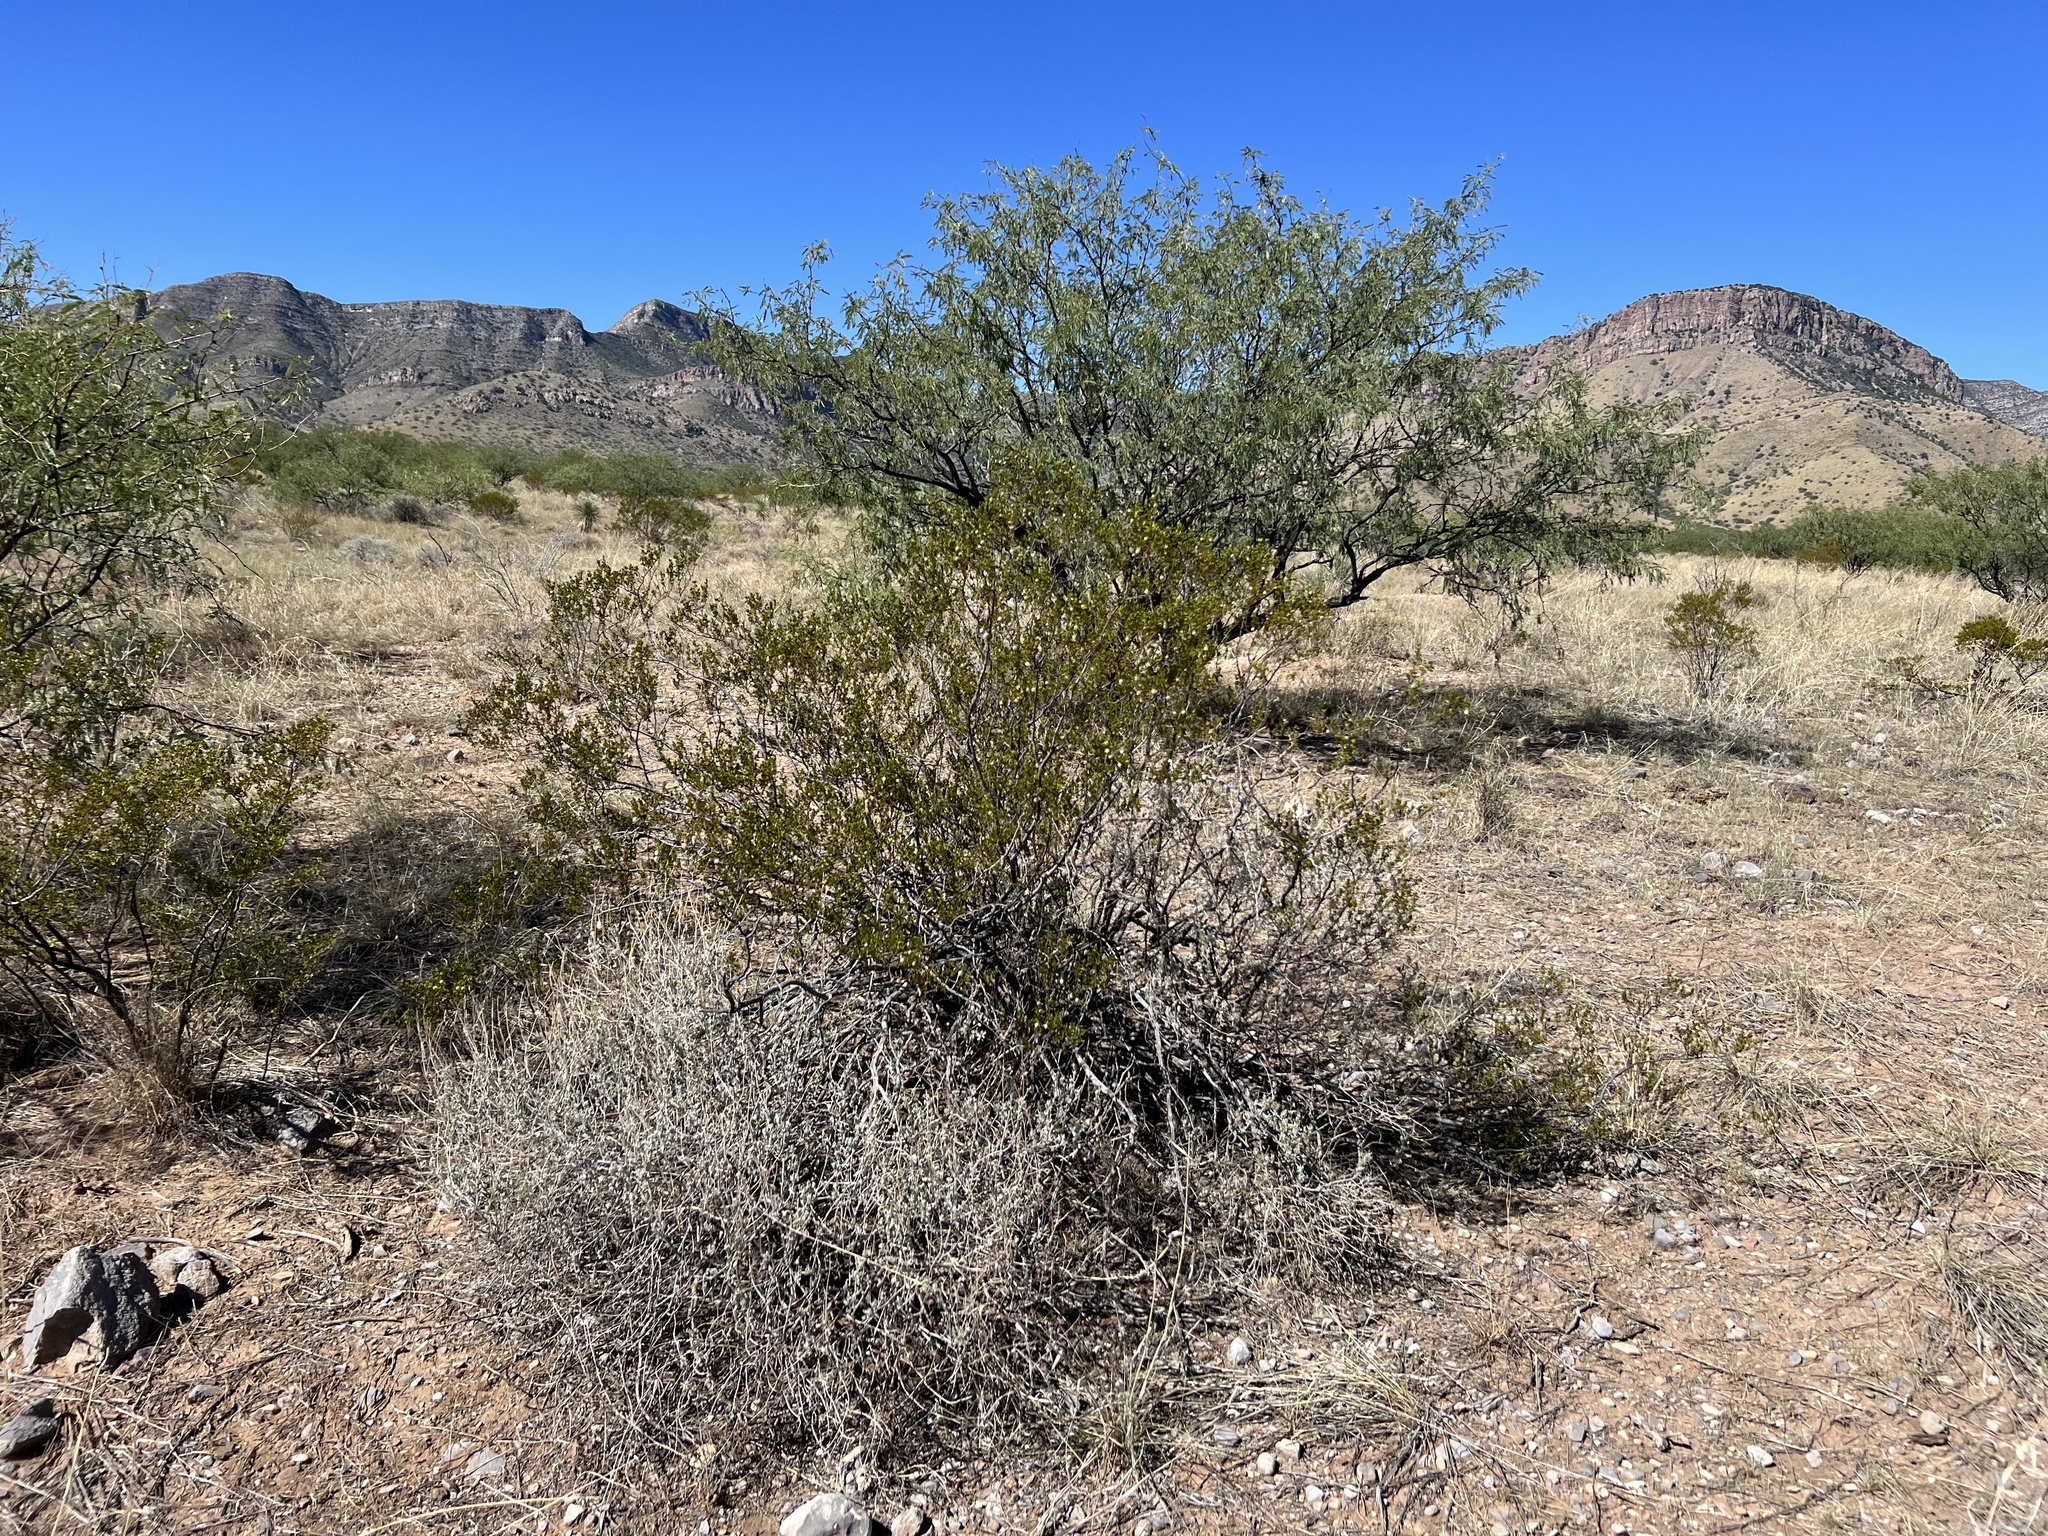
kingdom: Plantae
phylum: Tracheophyta
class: Magnoliopsida
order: Zygophyllales
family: Zygophyllaceae
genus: Larrea
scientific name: Larrea tridentata
